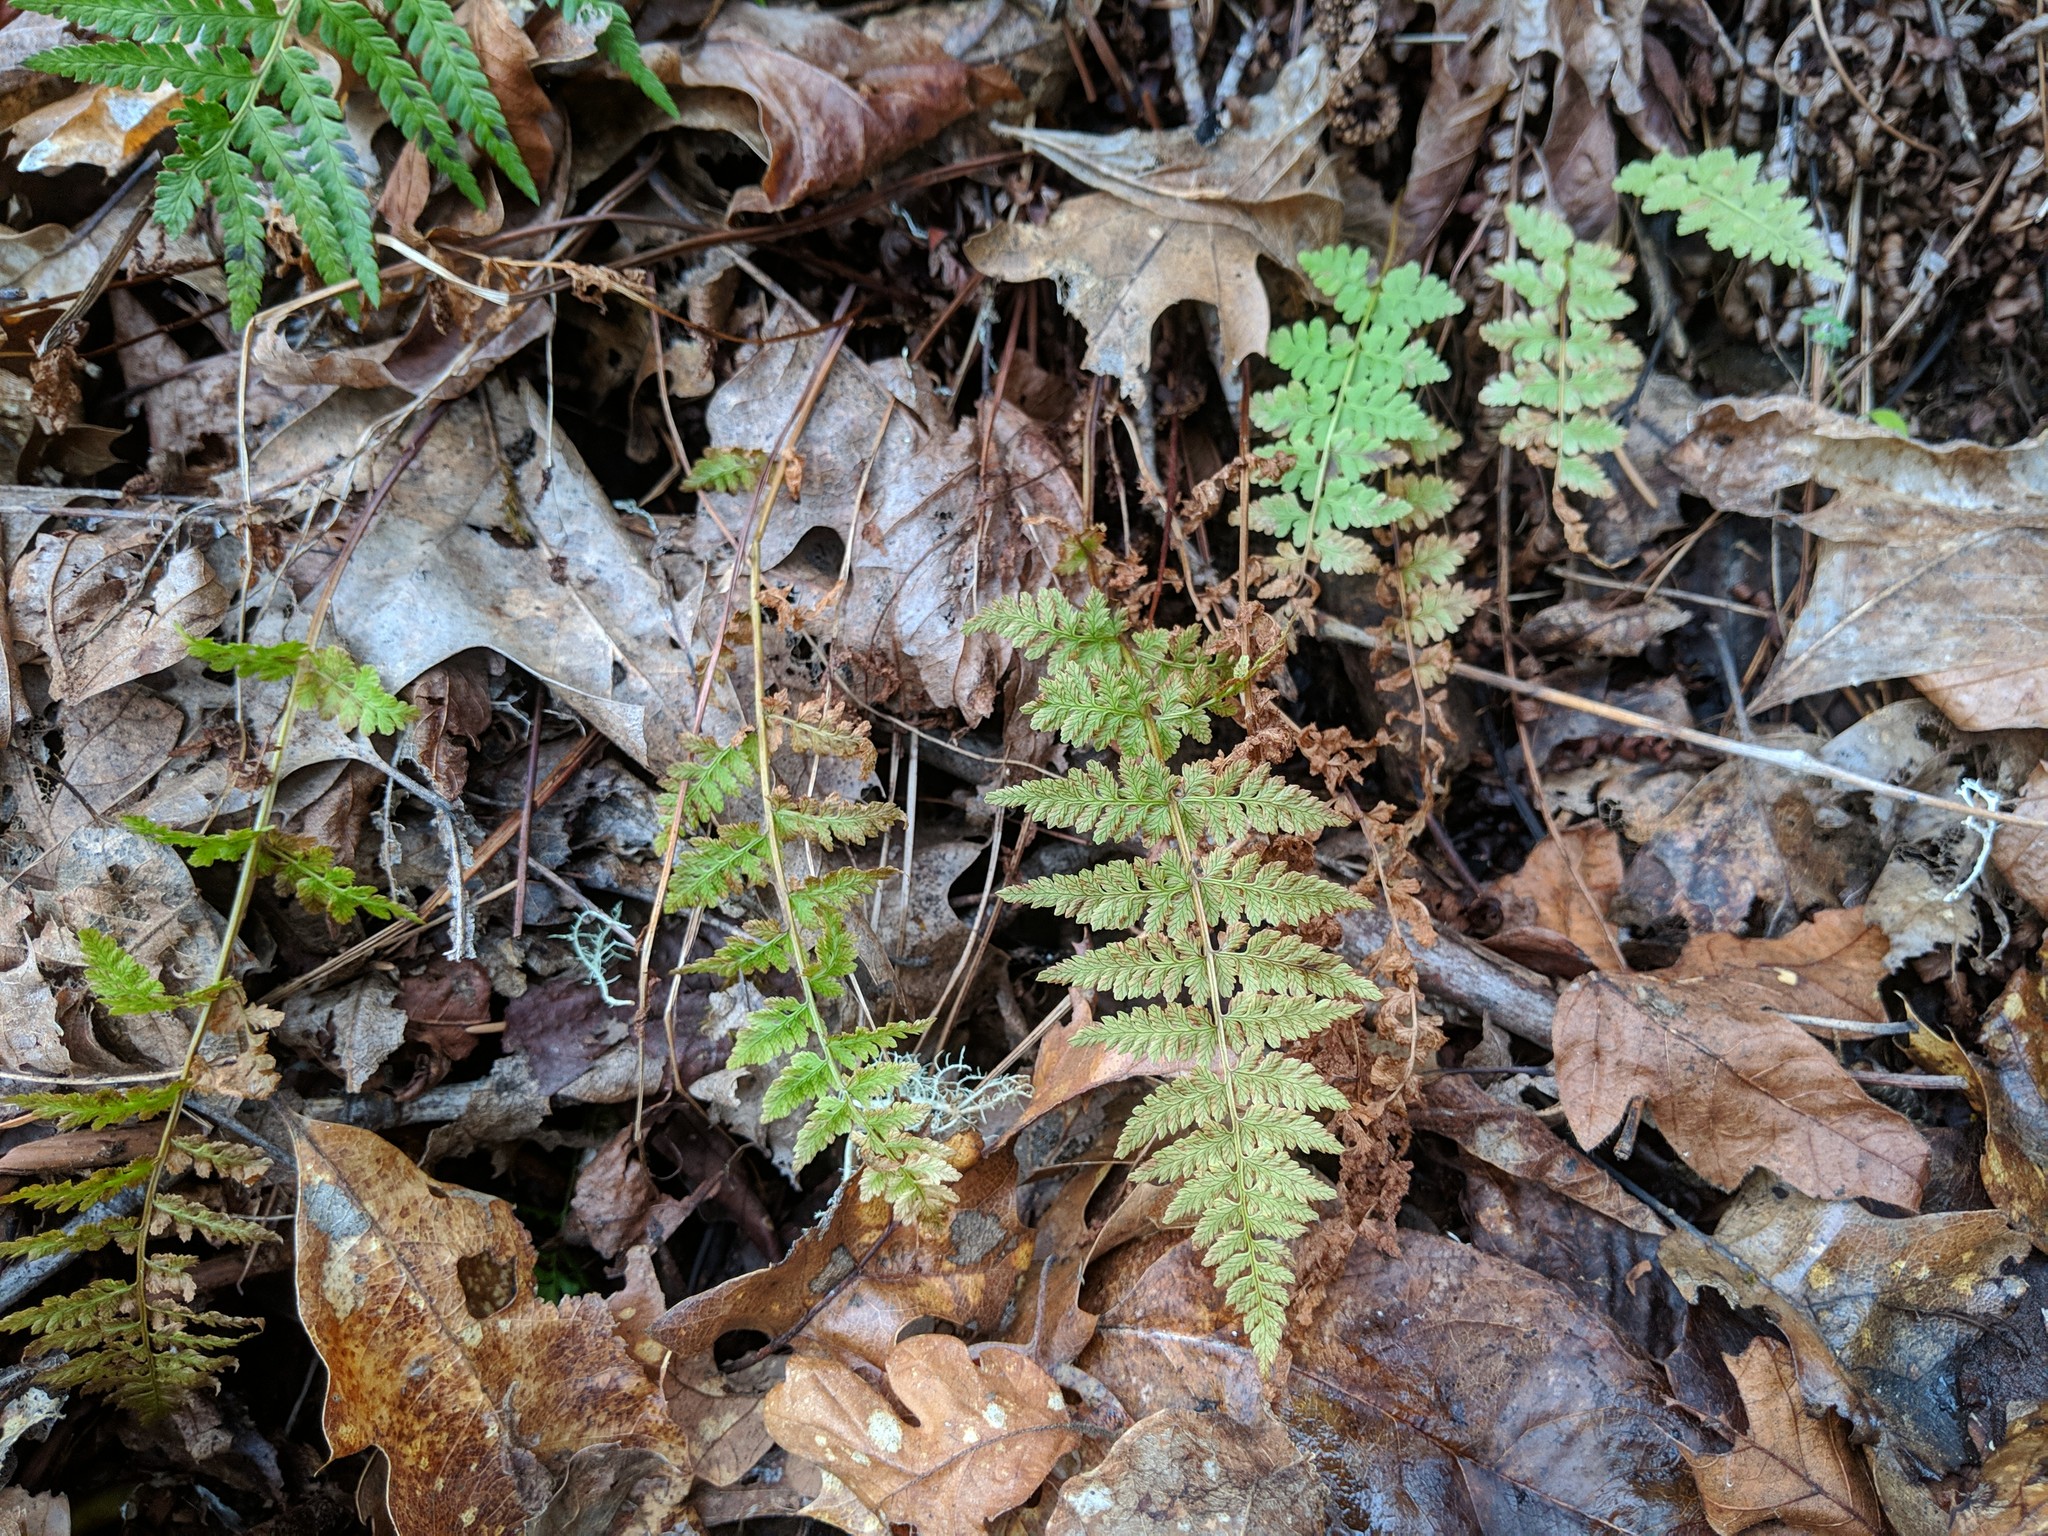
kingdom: Plantae
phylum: Tracheophyta
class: Polypodiopsida
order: Polypodiales
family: Cystopteridaceae
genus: Cystopteris
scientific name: Cystopteris fragilis
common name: Brittle bladder fern
